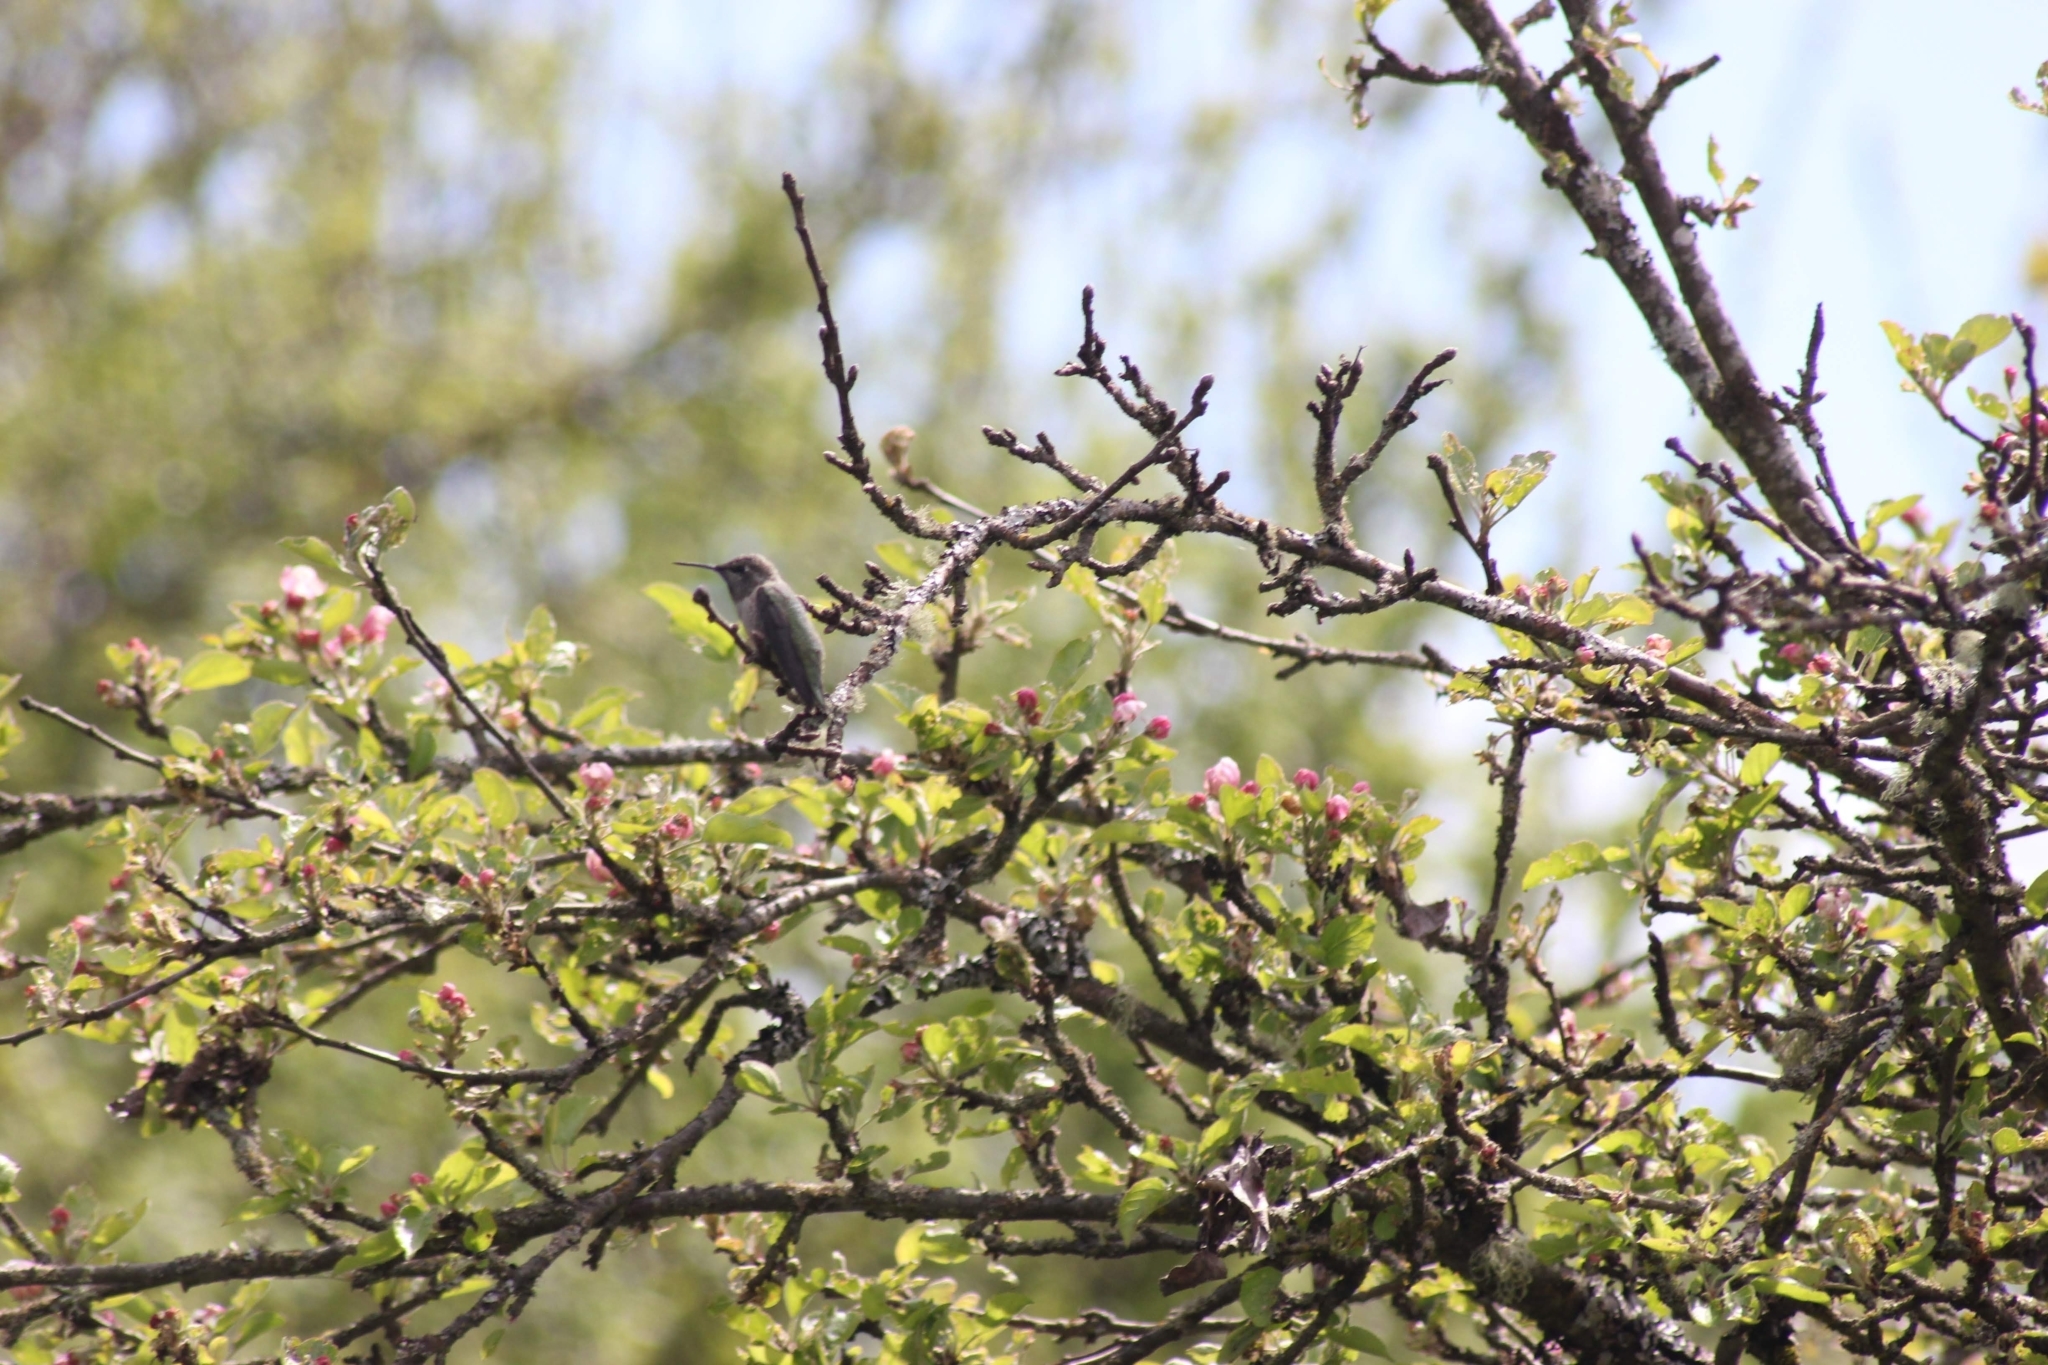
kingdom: Animalia
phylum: Chordata
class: Aves
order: Apodiformes
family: Trochilidae
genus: Calypte
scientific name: Calypte anna
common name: Anna's hummingbird
